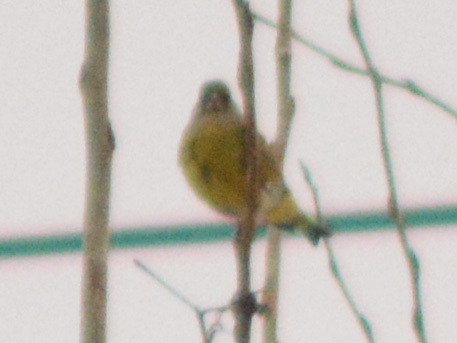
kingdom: Plantae
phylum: Tracheophyta
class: Liliopsida
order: Poales
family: Poaceae
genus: Chloris
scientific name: Chloris chloris
